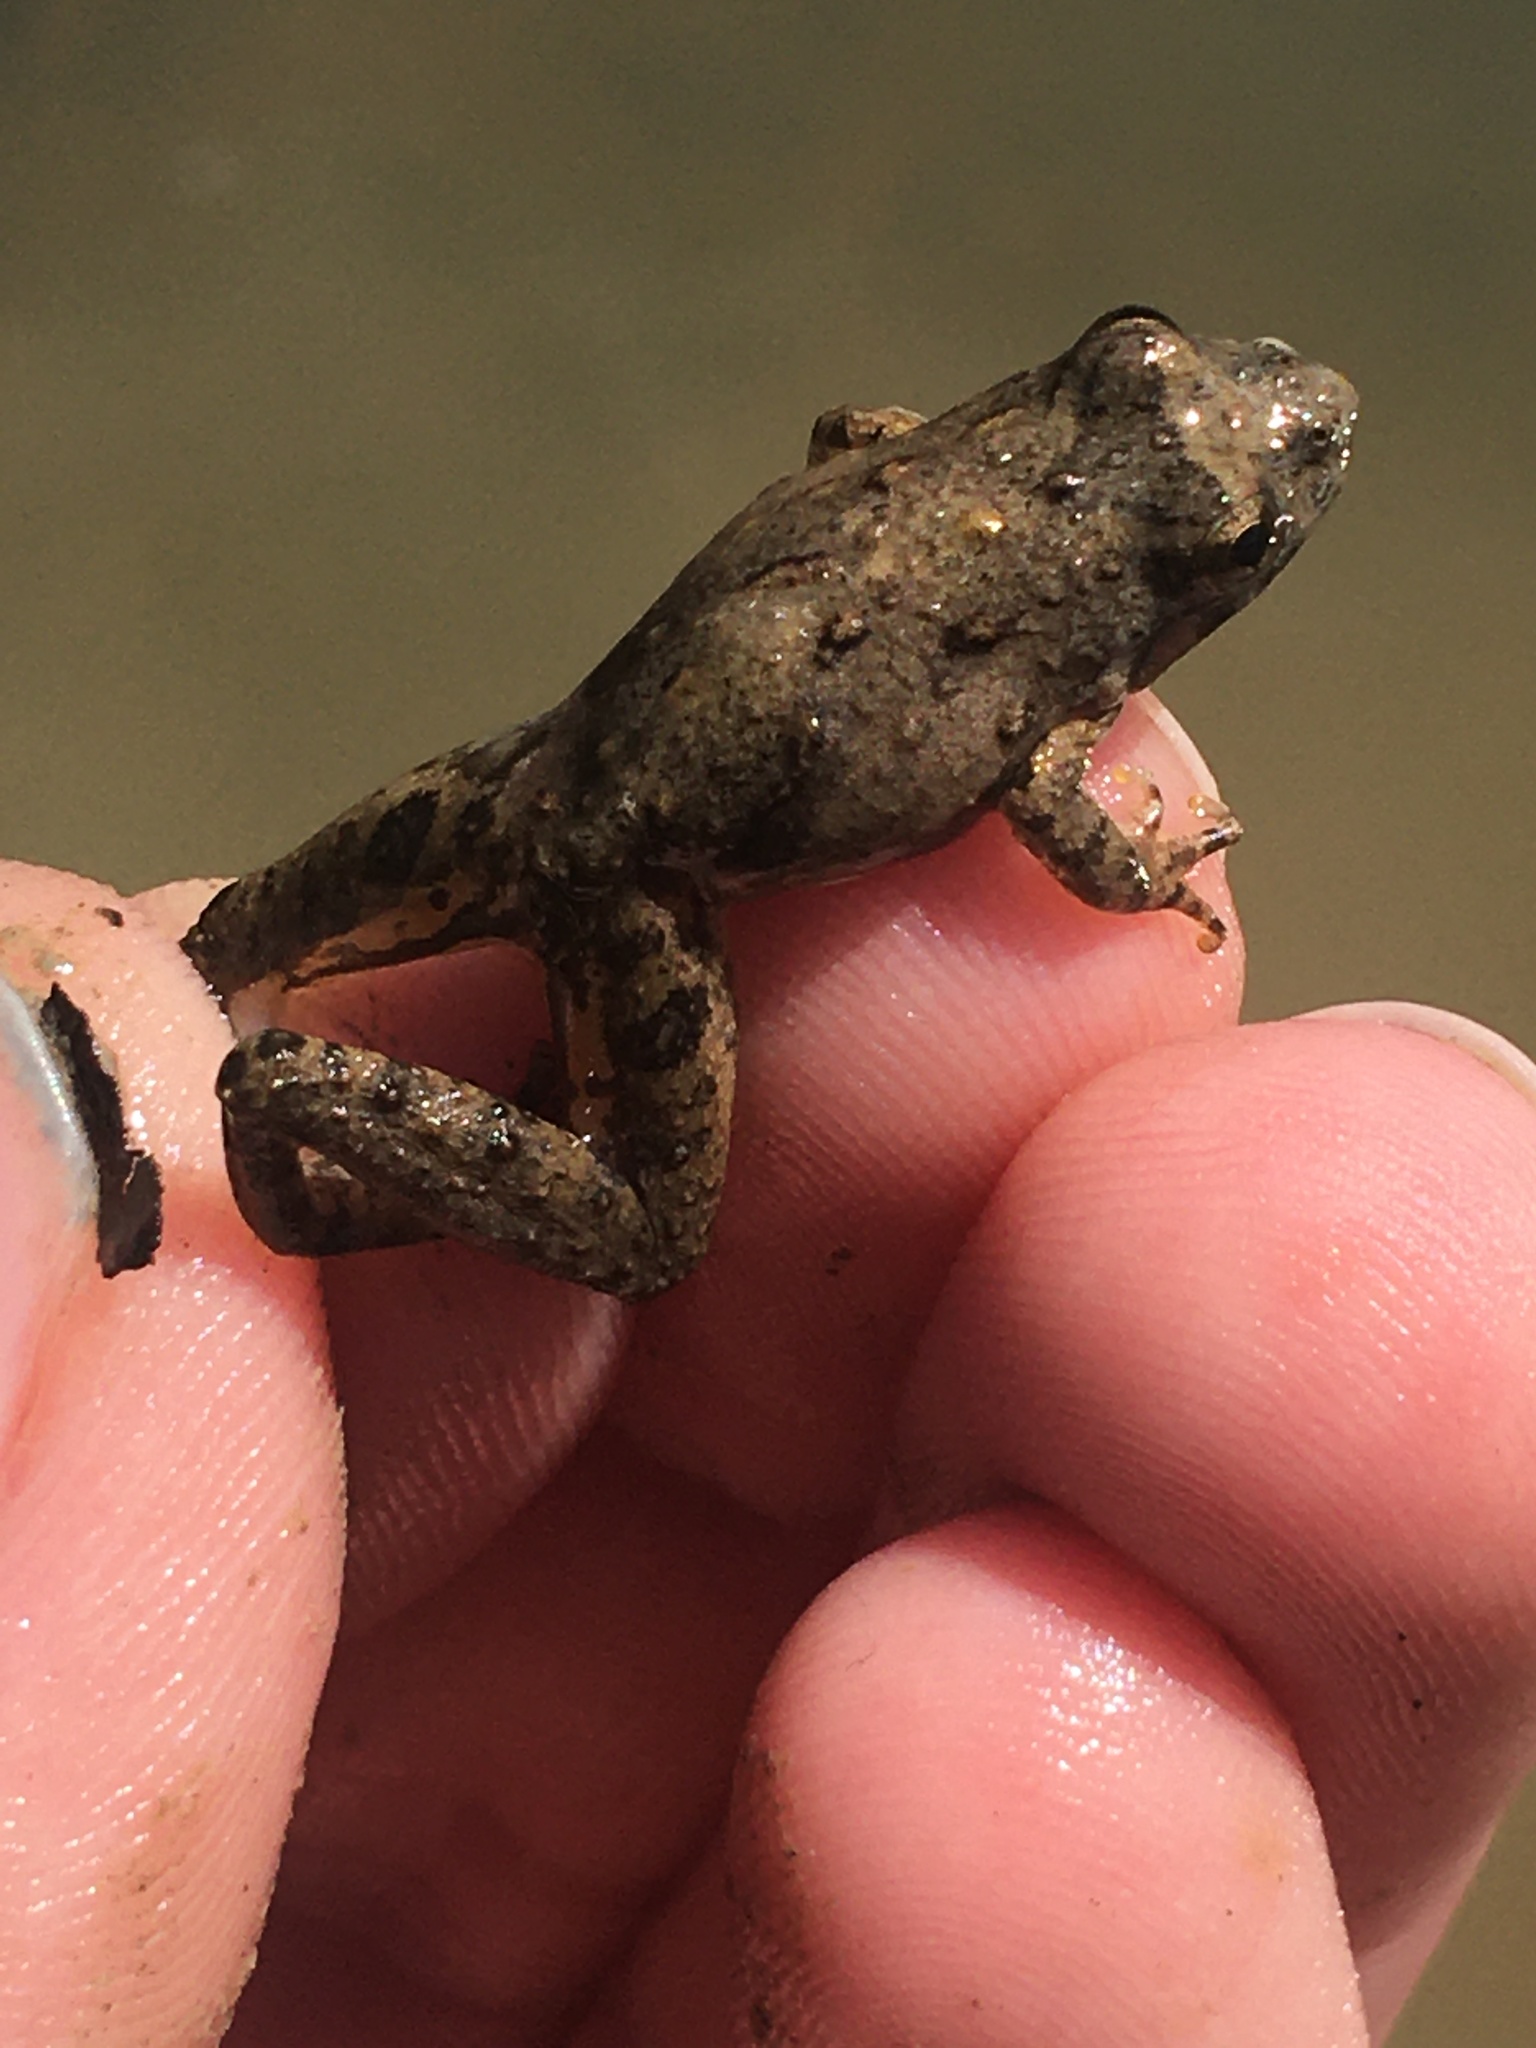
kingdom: Animalia
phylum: Chordata
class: Amphibia
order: Anura
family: Hylidae
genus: Acris
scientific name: Acris blanchardi
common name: Blanchard's cricket frog
